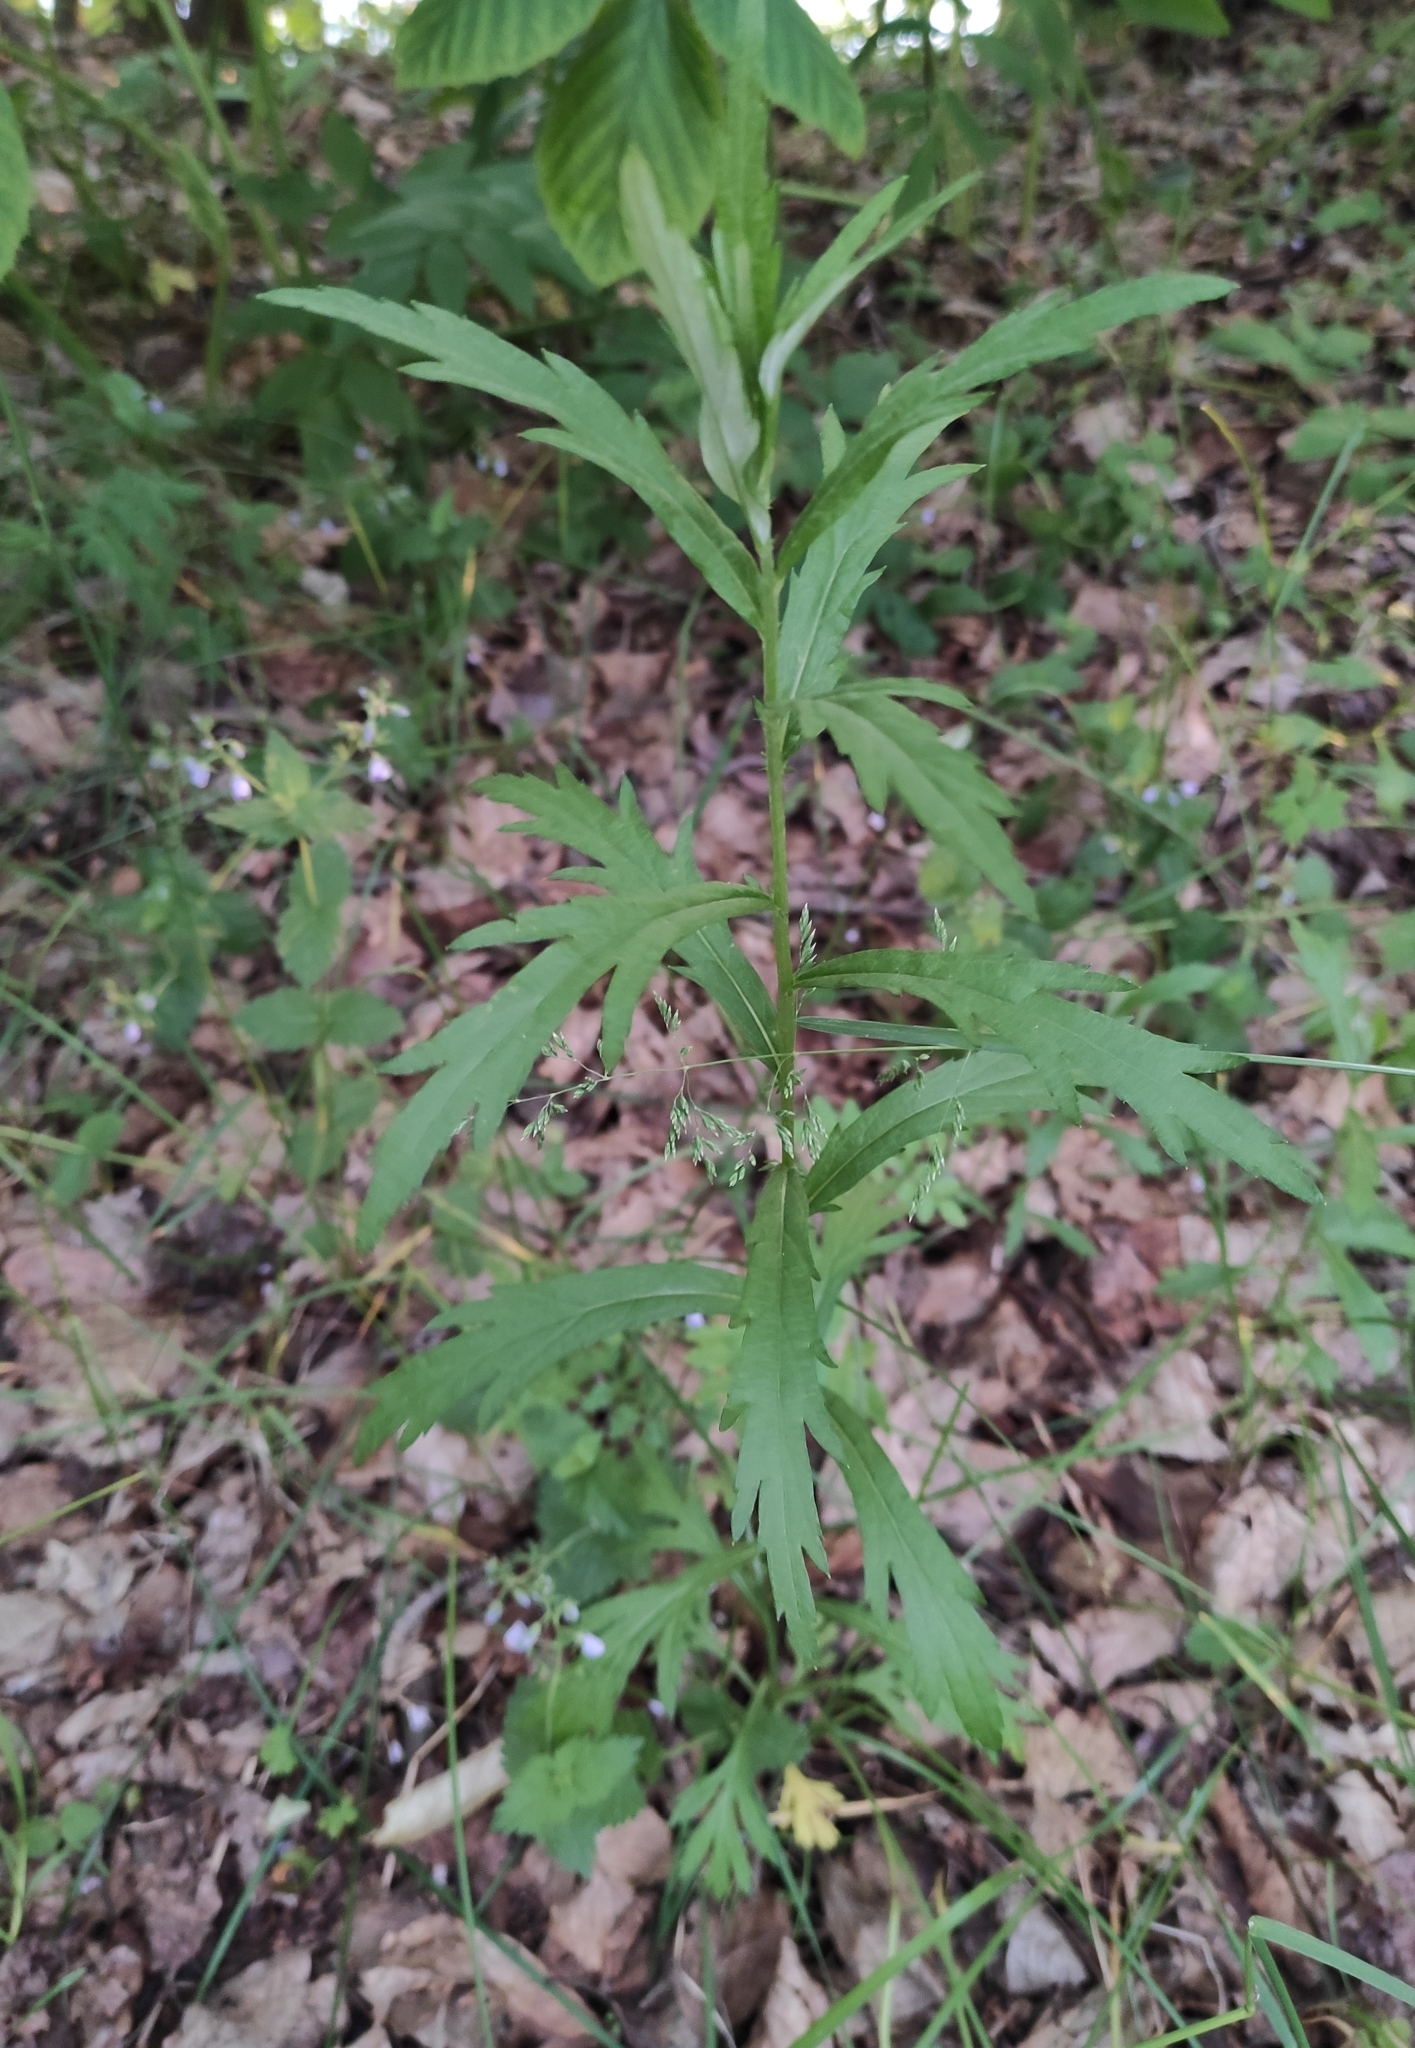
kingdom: Plantae
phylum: Tracheophyta
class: Magnoliopsida
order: Asterales
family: Asteraceae
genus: Artemisia
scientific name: Artemisia integrifolia
